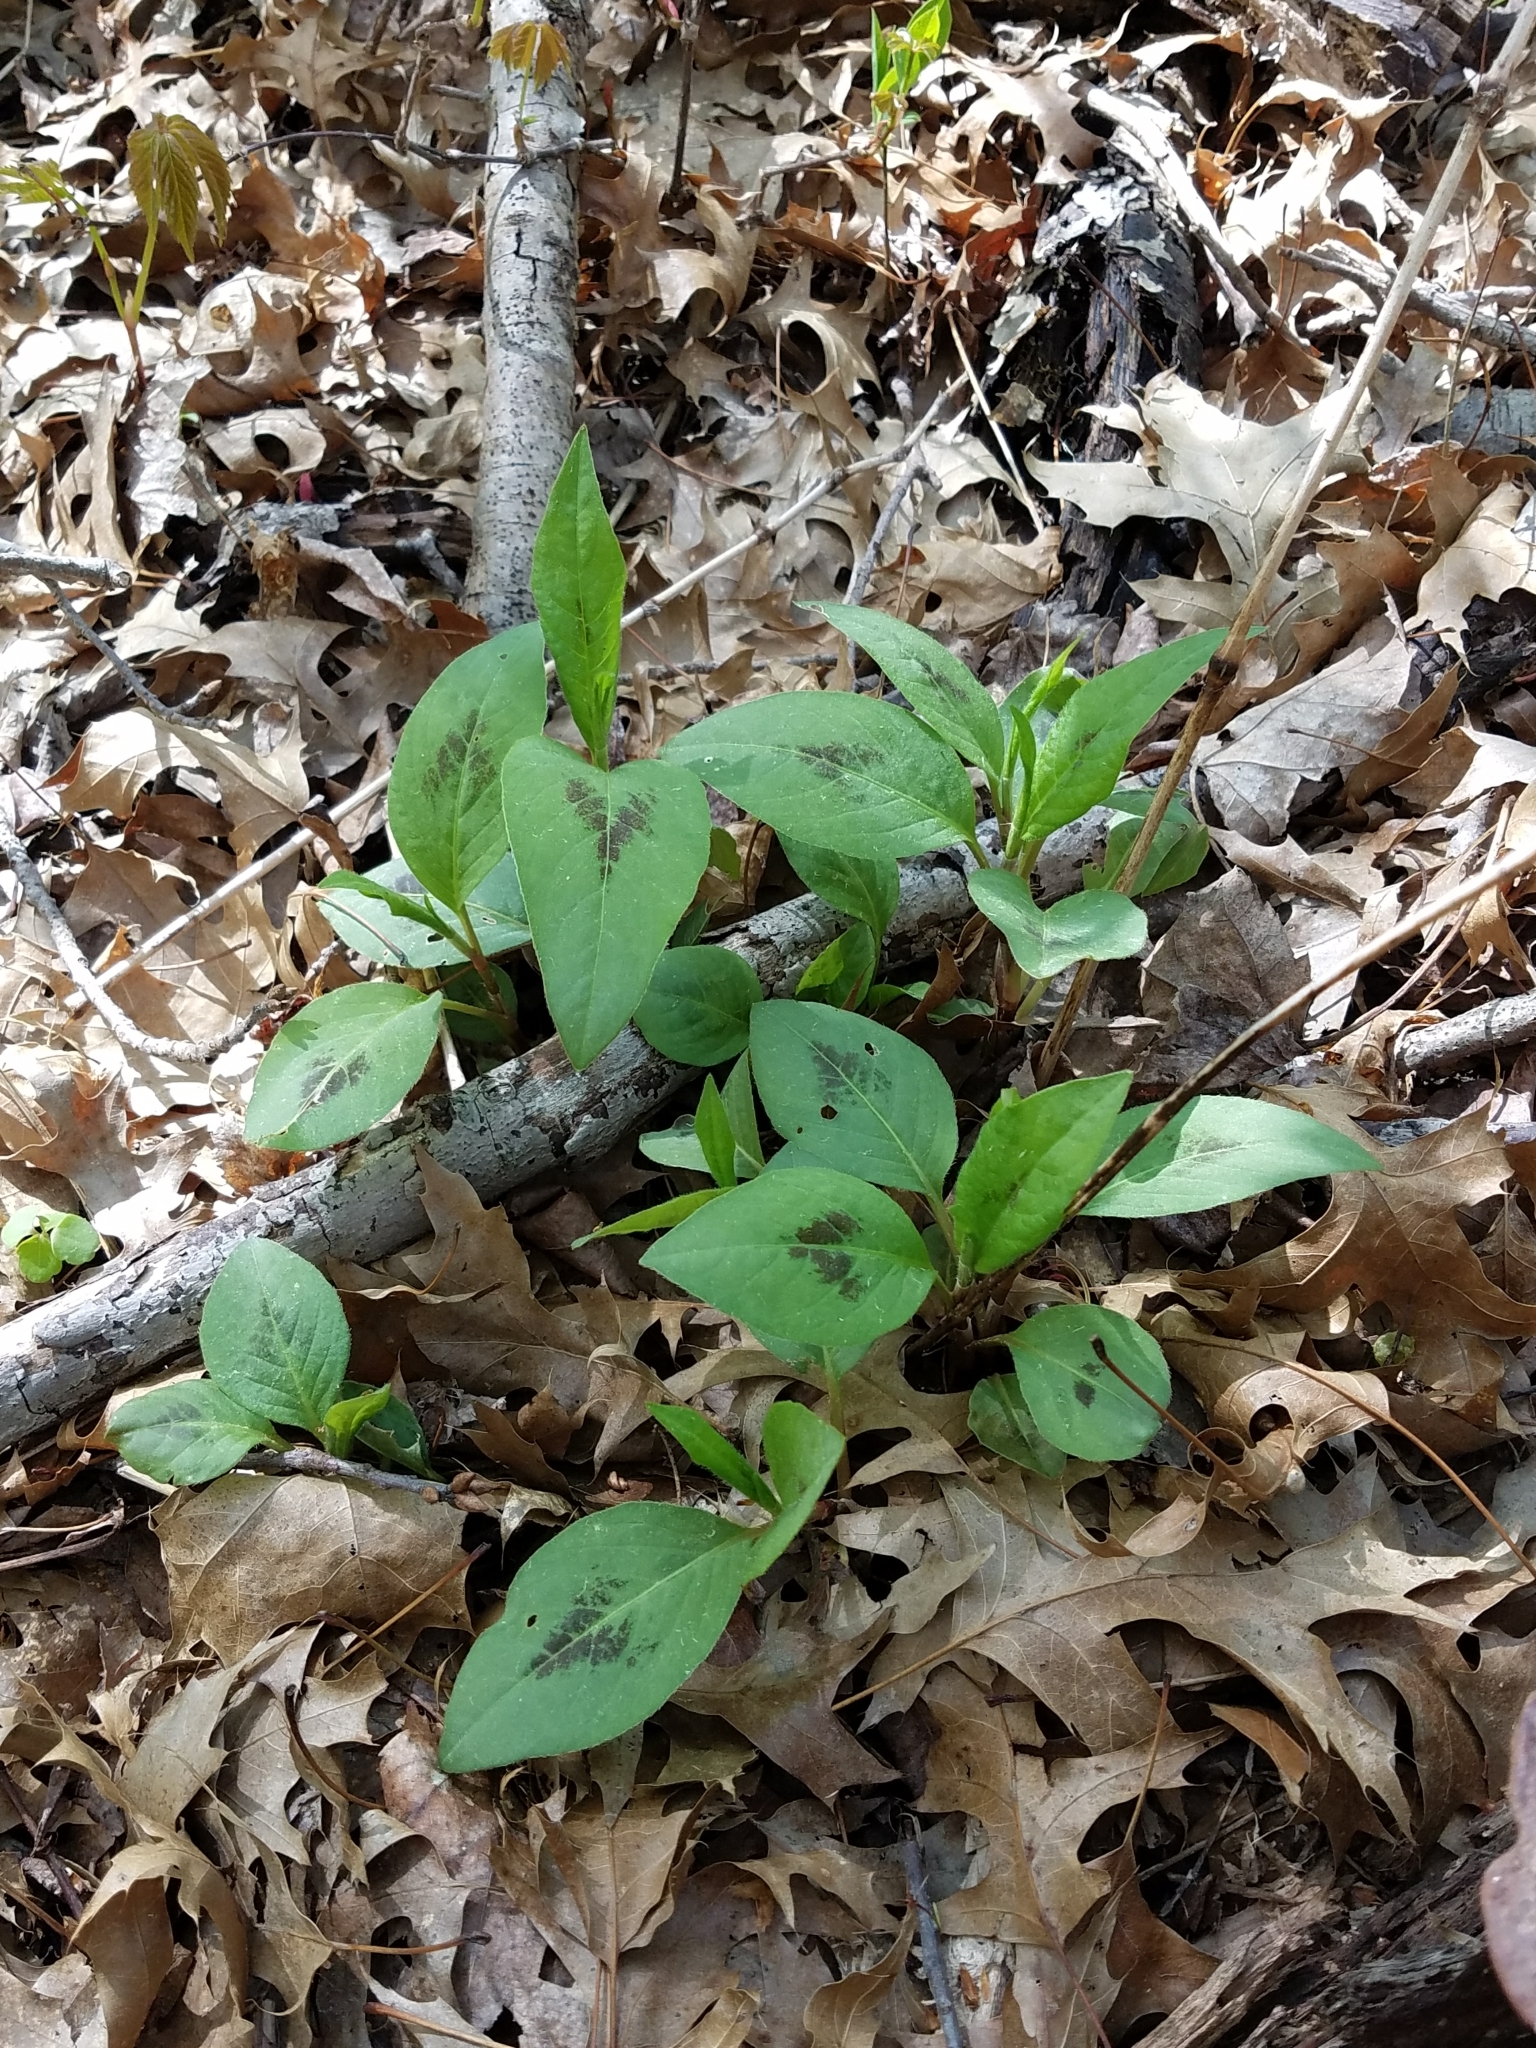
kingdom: Plantae
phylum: Tracheophyta
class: Magnoliopsida
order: Caryophyllales
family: Polygonaceae
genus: Persicaria
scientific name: Persicaria virginiana
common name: Jumpseed
